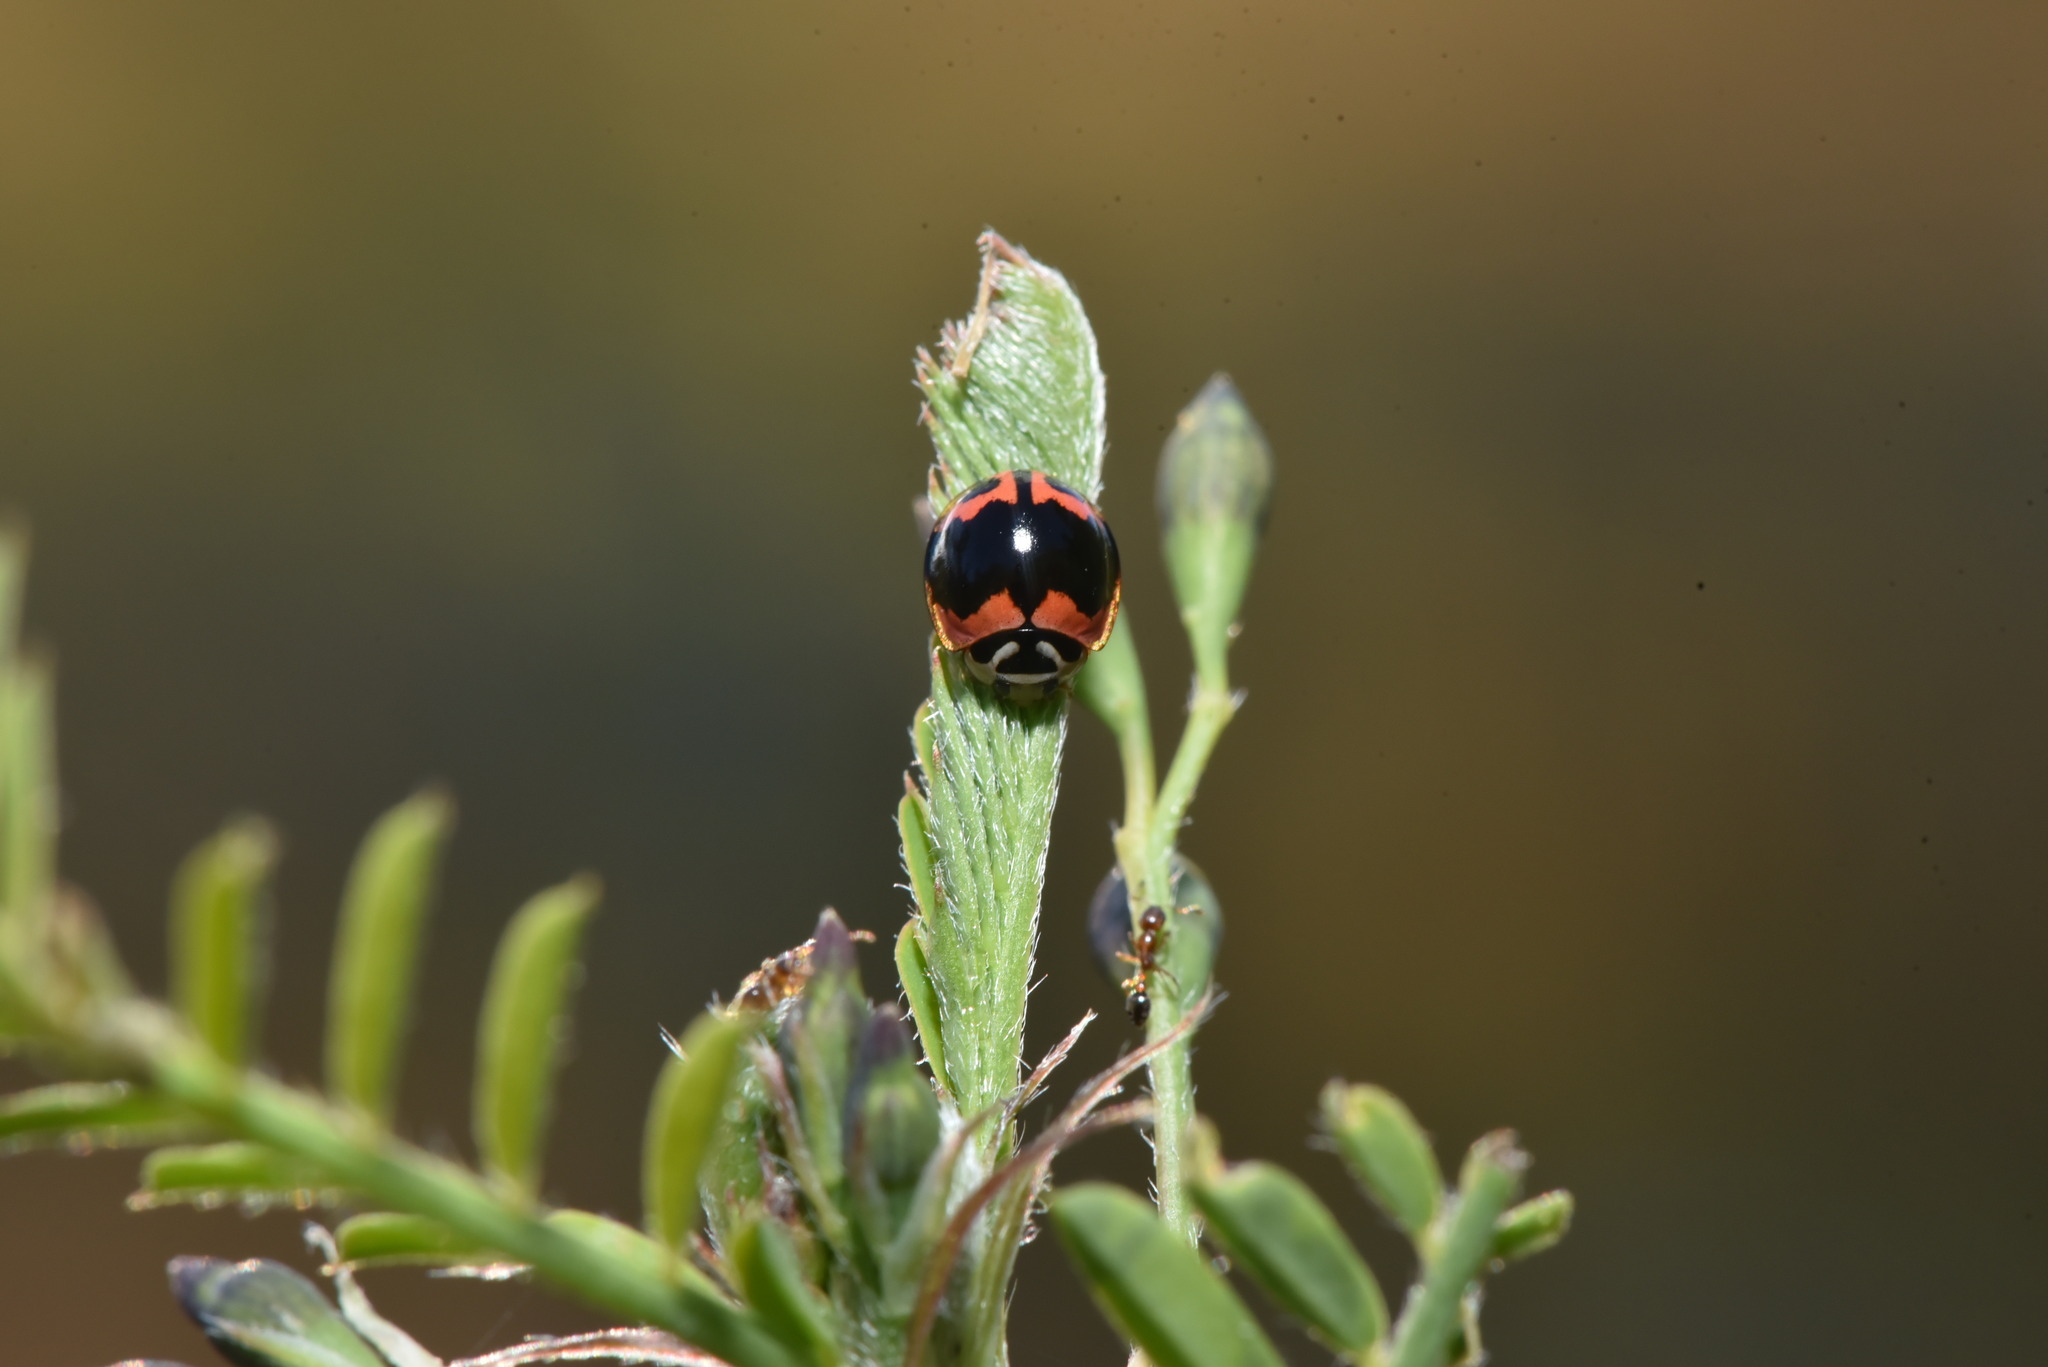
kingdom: Animalia
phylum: Arthropoda
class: Insecta
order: Coleoptera
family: Coccinellidae
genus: Cheilomenes
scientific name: Cheilomenes sexmaculata
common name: Ladybird beetle
